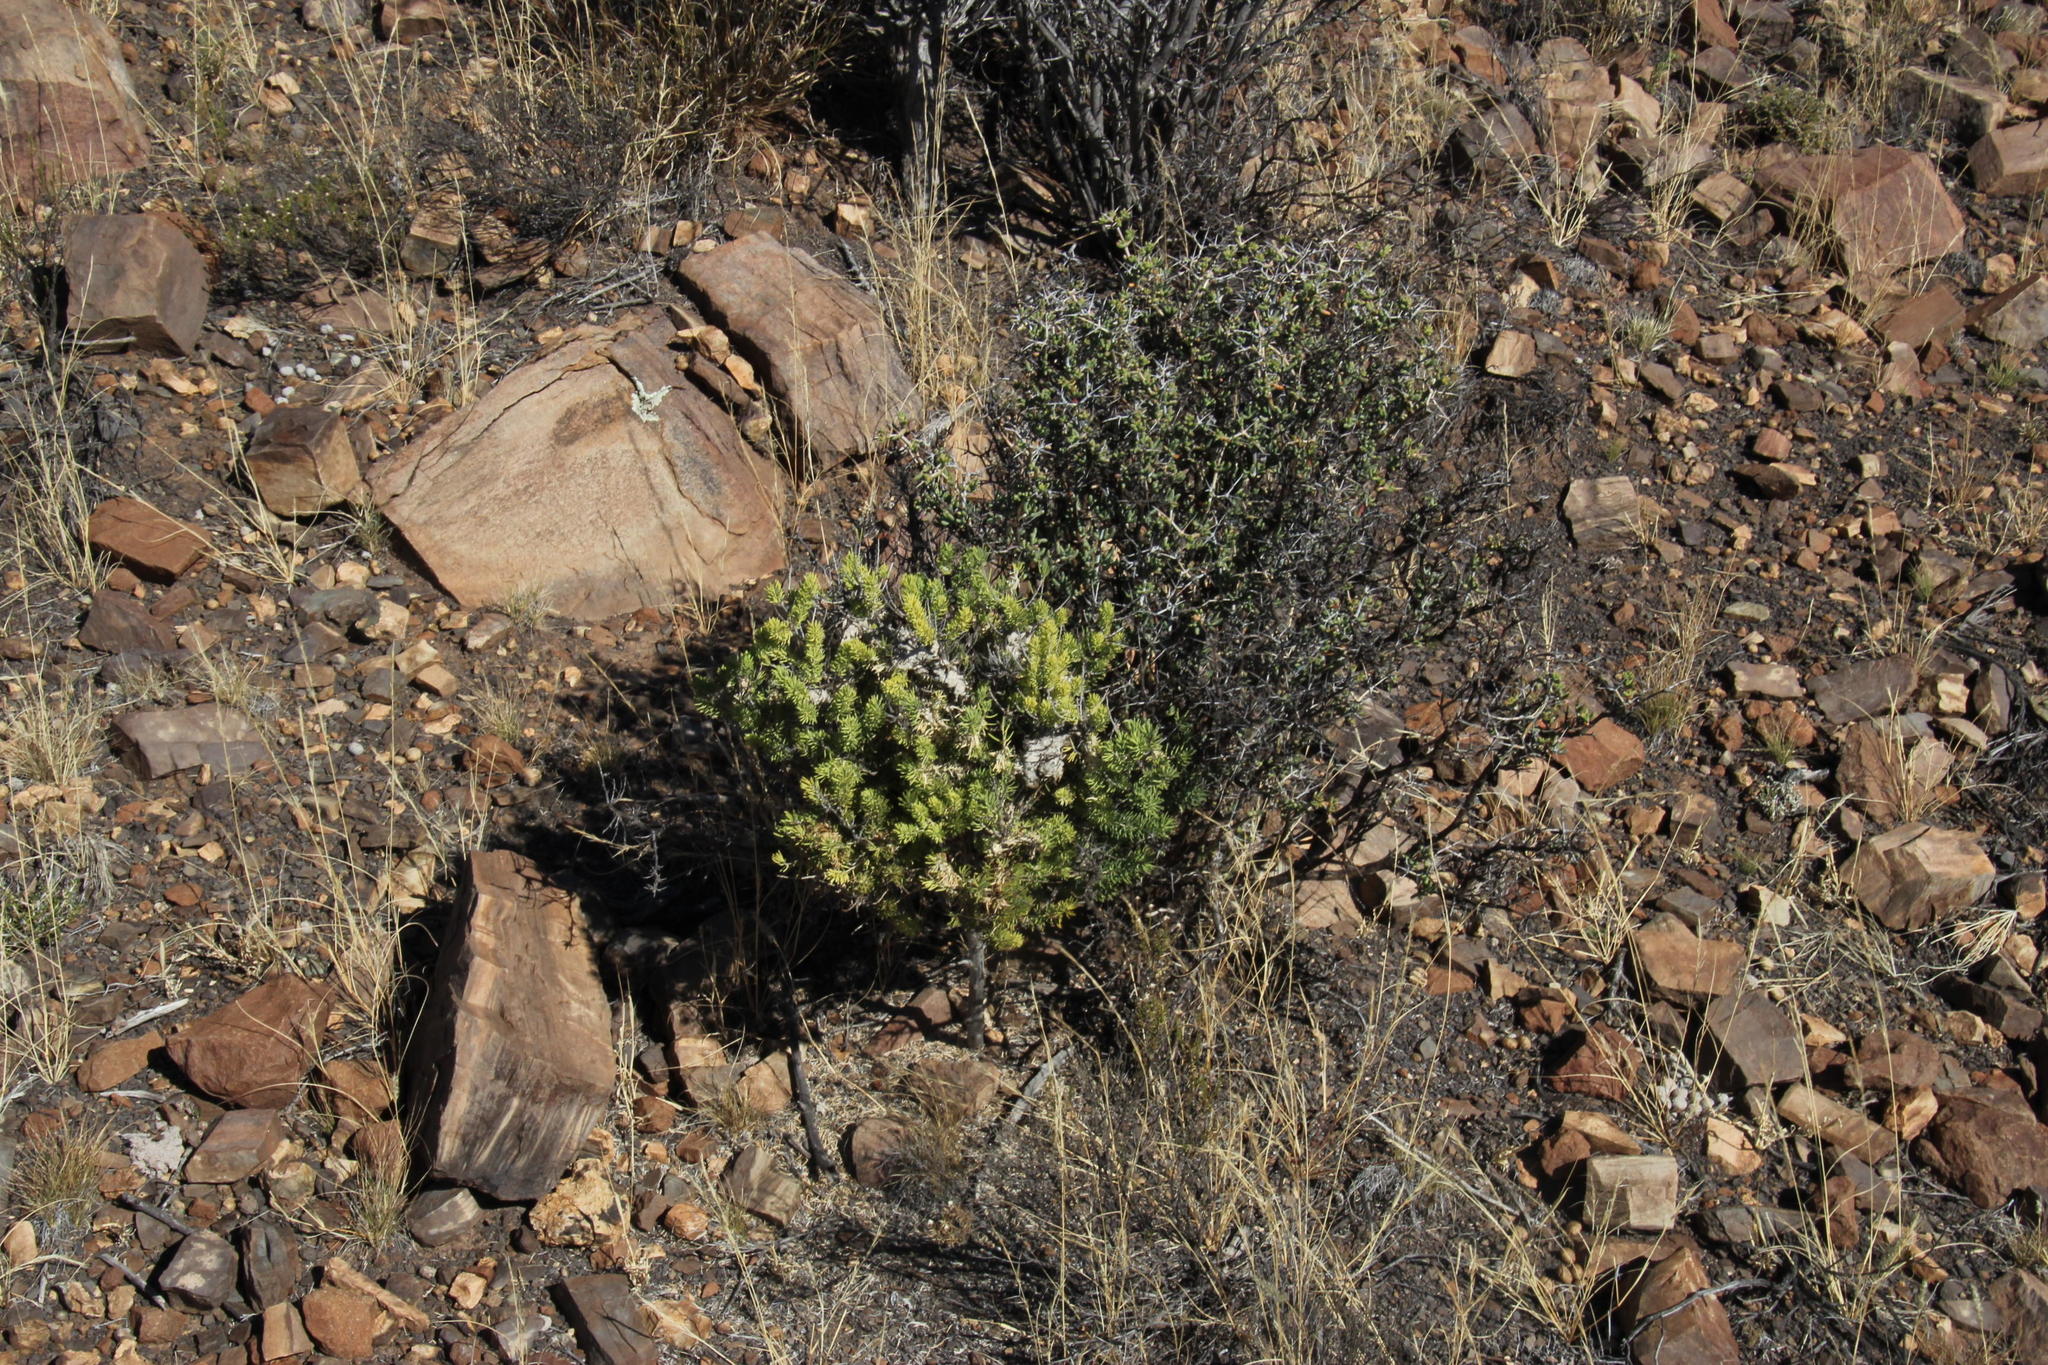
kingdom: Plantae
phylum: Tracheophyta
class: Liliopsida
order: Asparagales
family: Asparagaceae
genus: Asparagus
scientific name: Asparagus mucronatus
